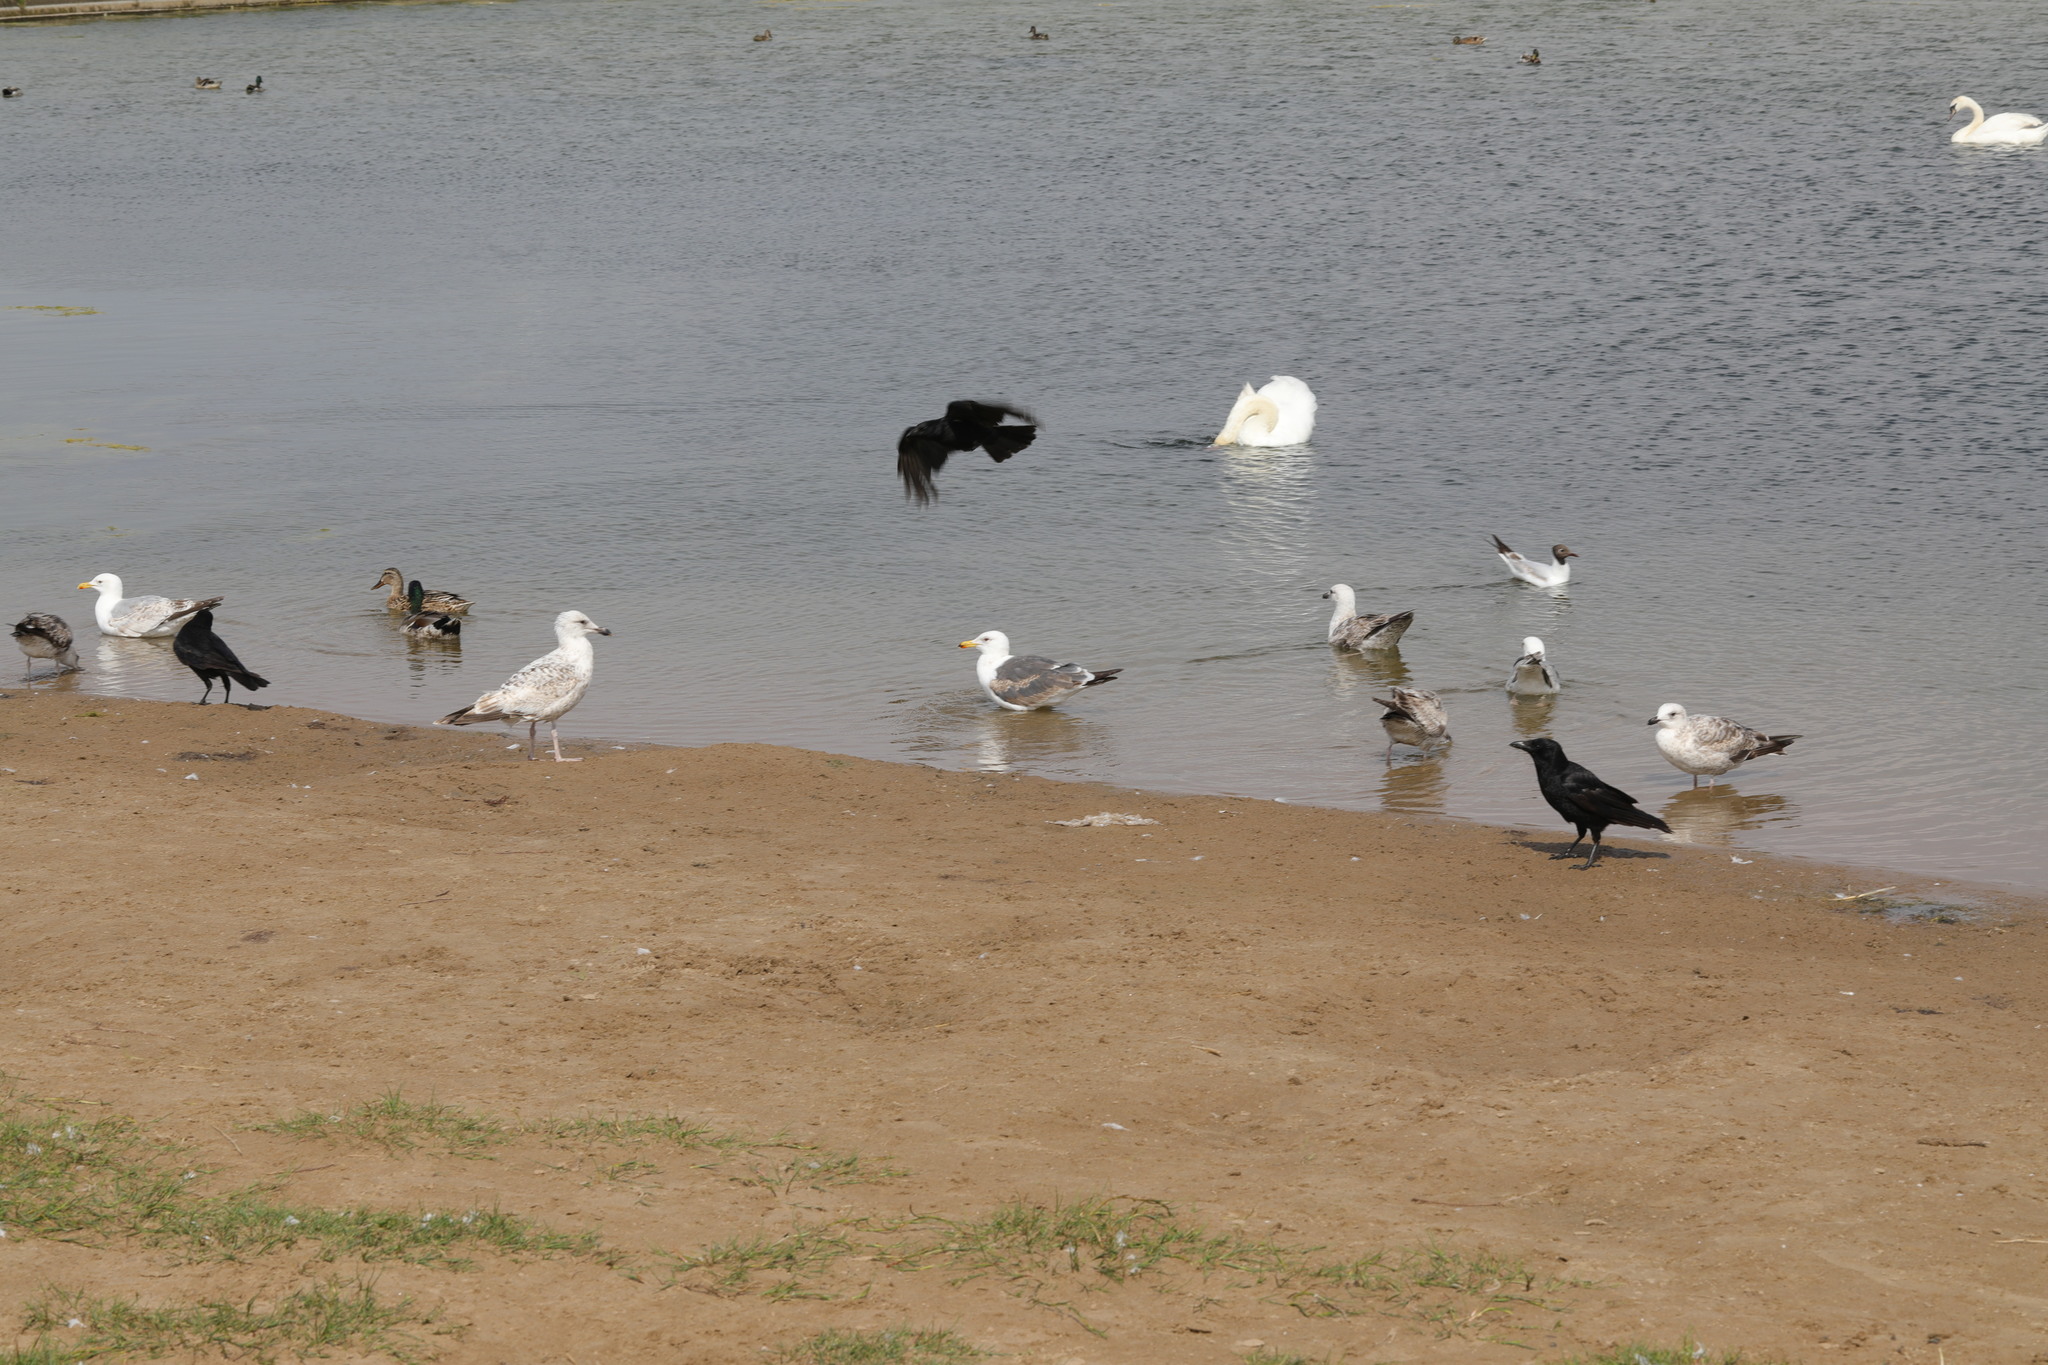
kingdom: Animalia
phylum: Chordata
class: Aves
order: Charadriiformes
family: Laridae
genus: Larus
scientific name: Larus fuscus
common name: Lesser black-backed gull
